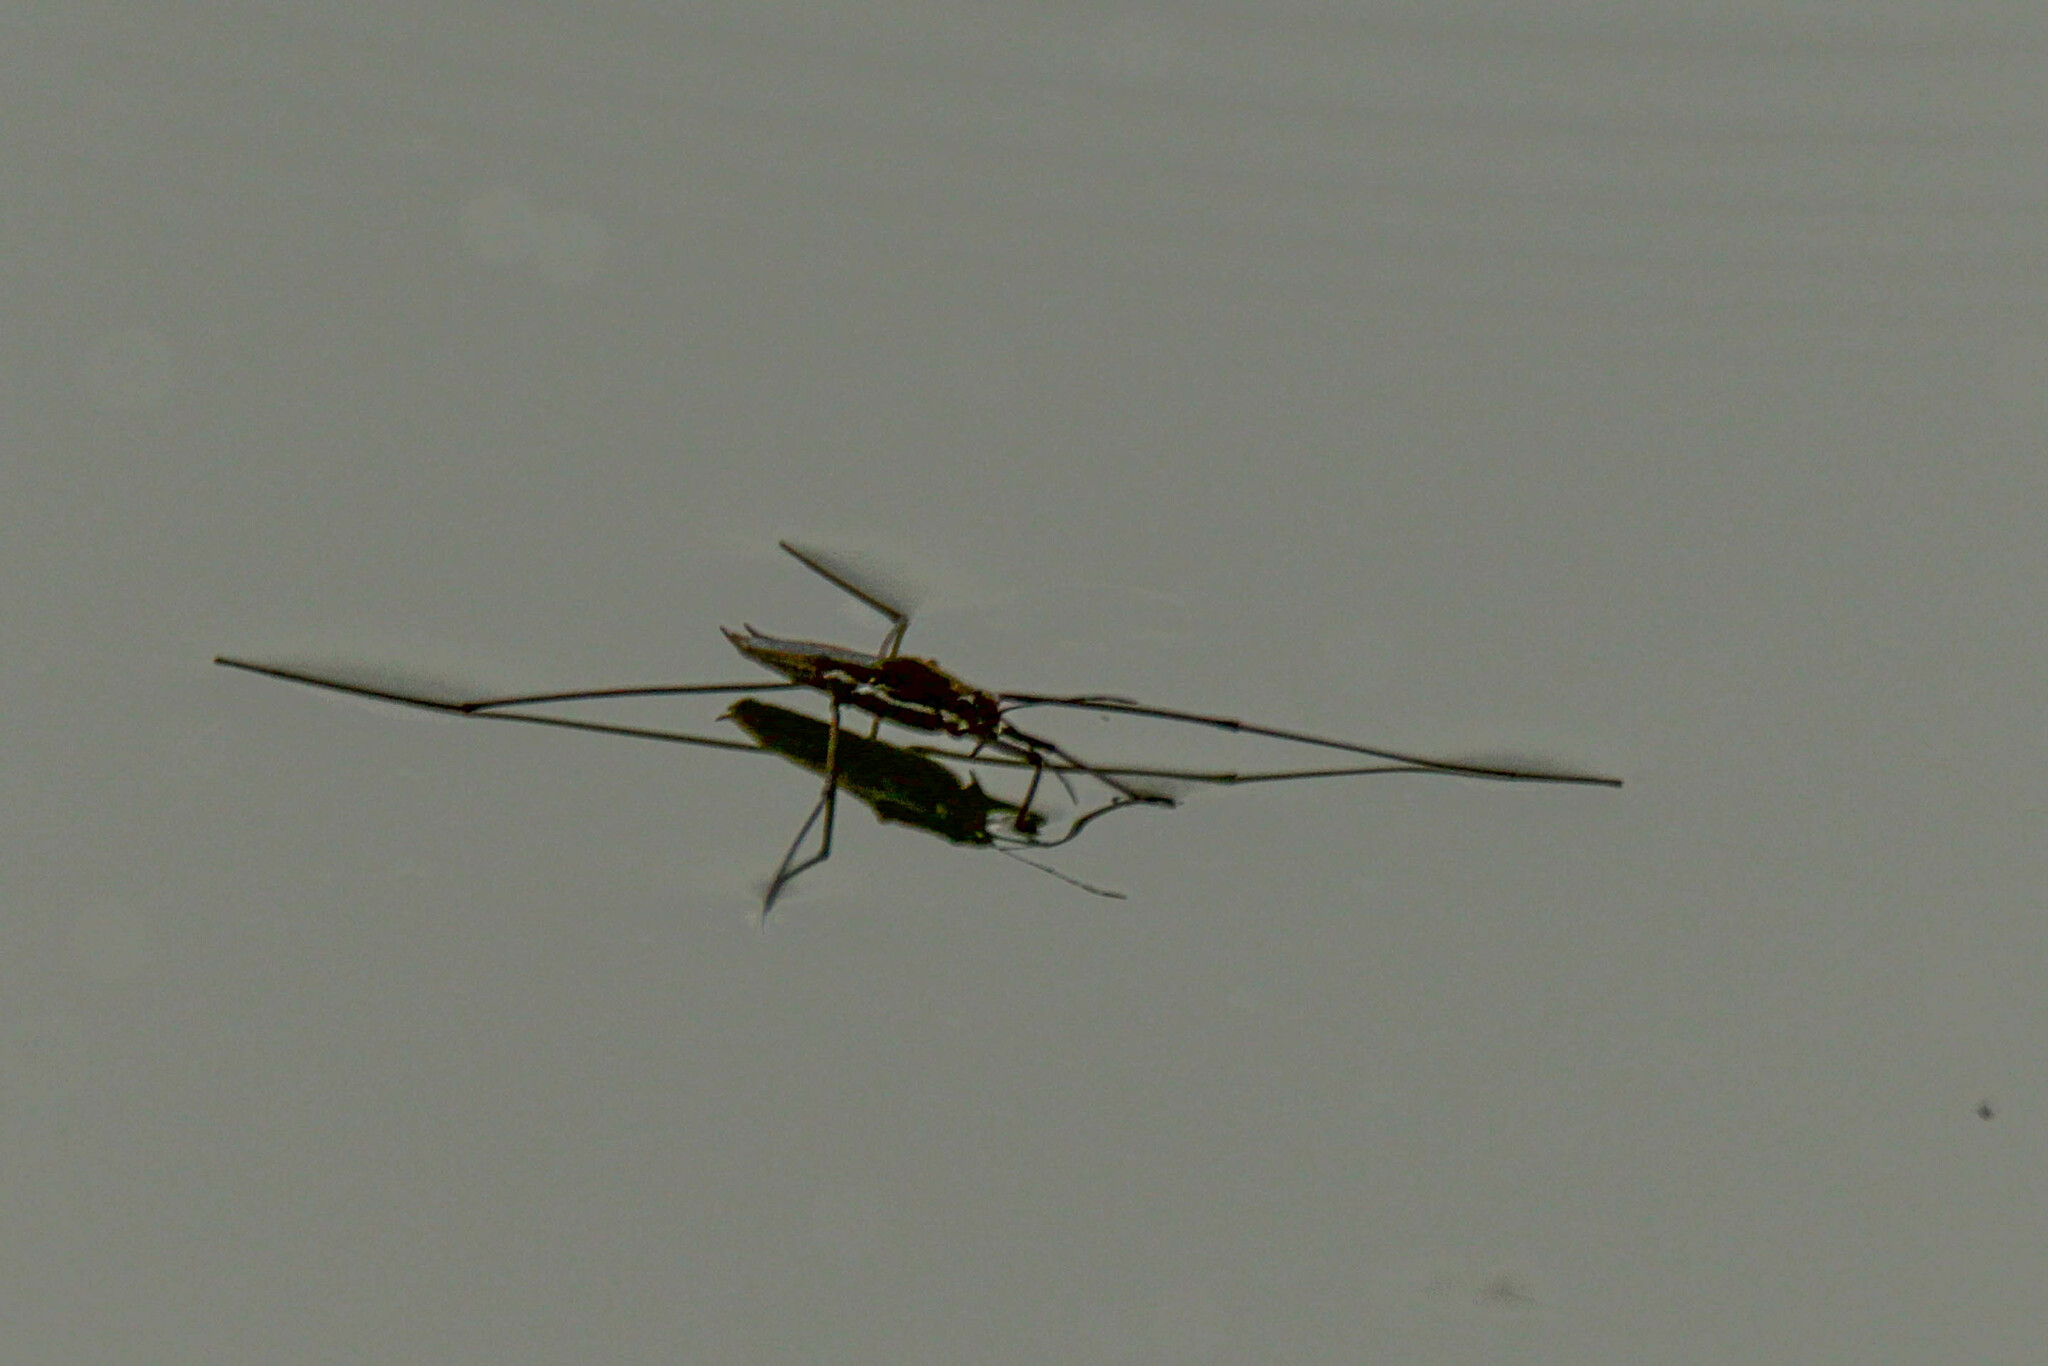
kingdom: Animalia
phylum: Arthropoda
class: Insecta
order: Hemiptera
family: Gerridae
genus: Aquarius
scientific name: Aquarius paludum
